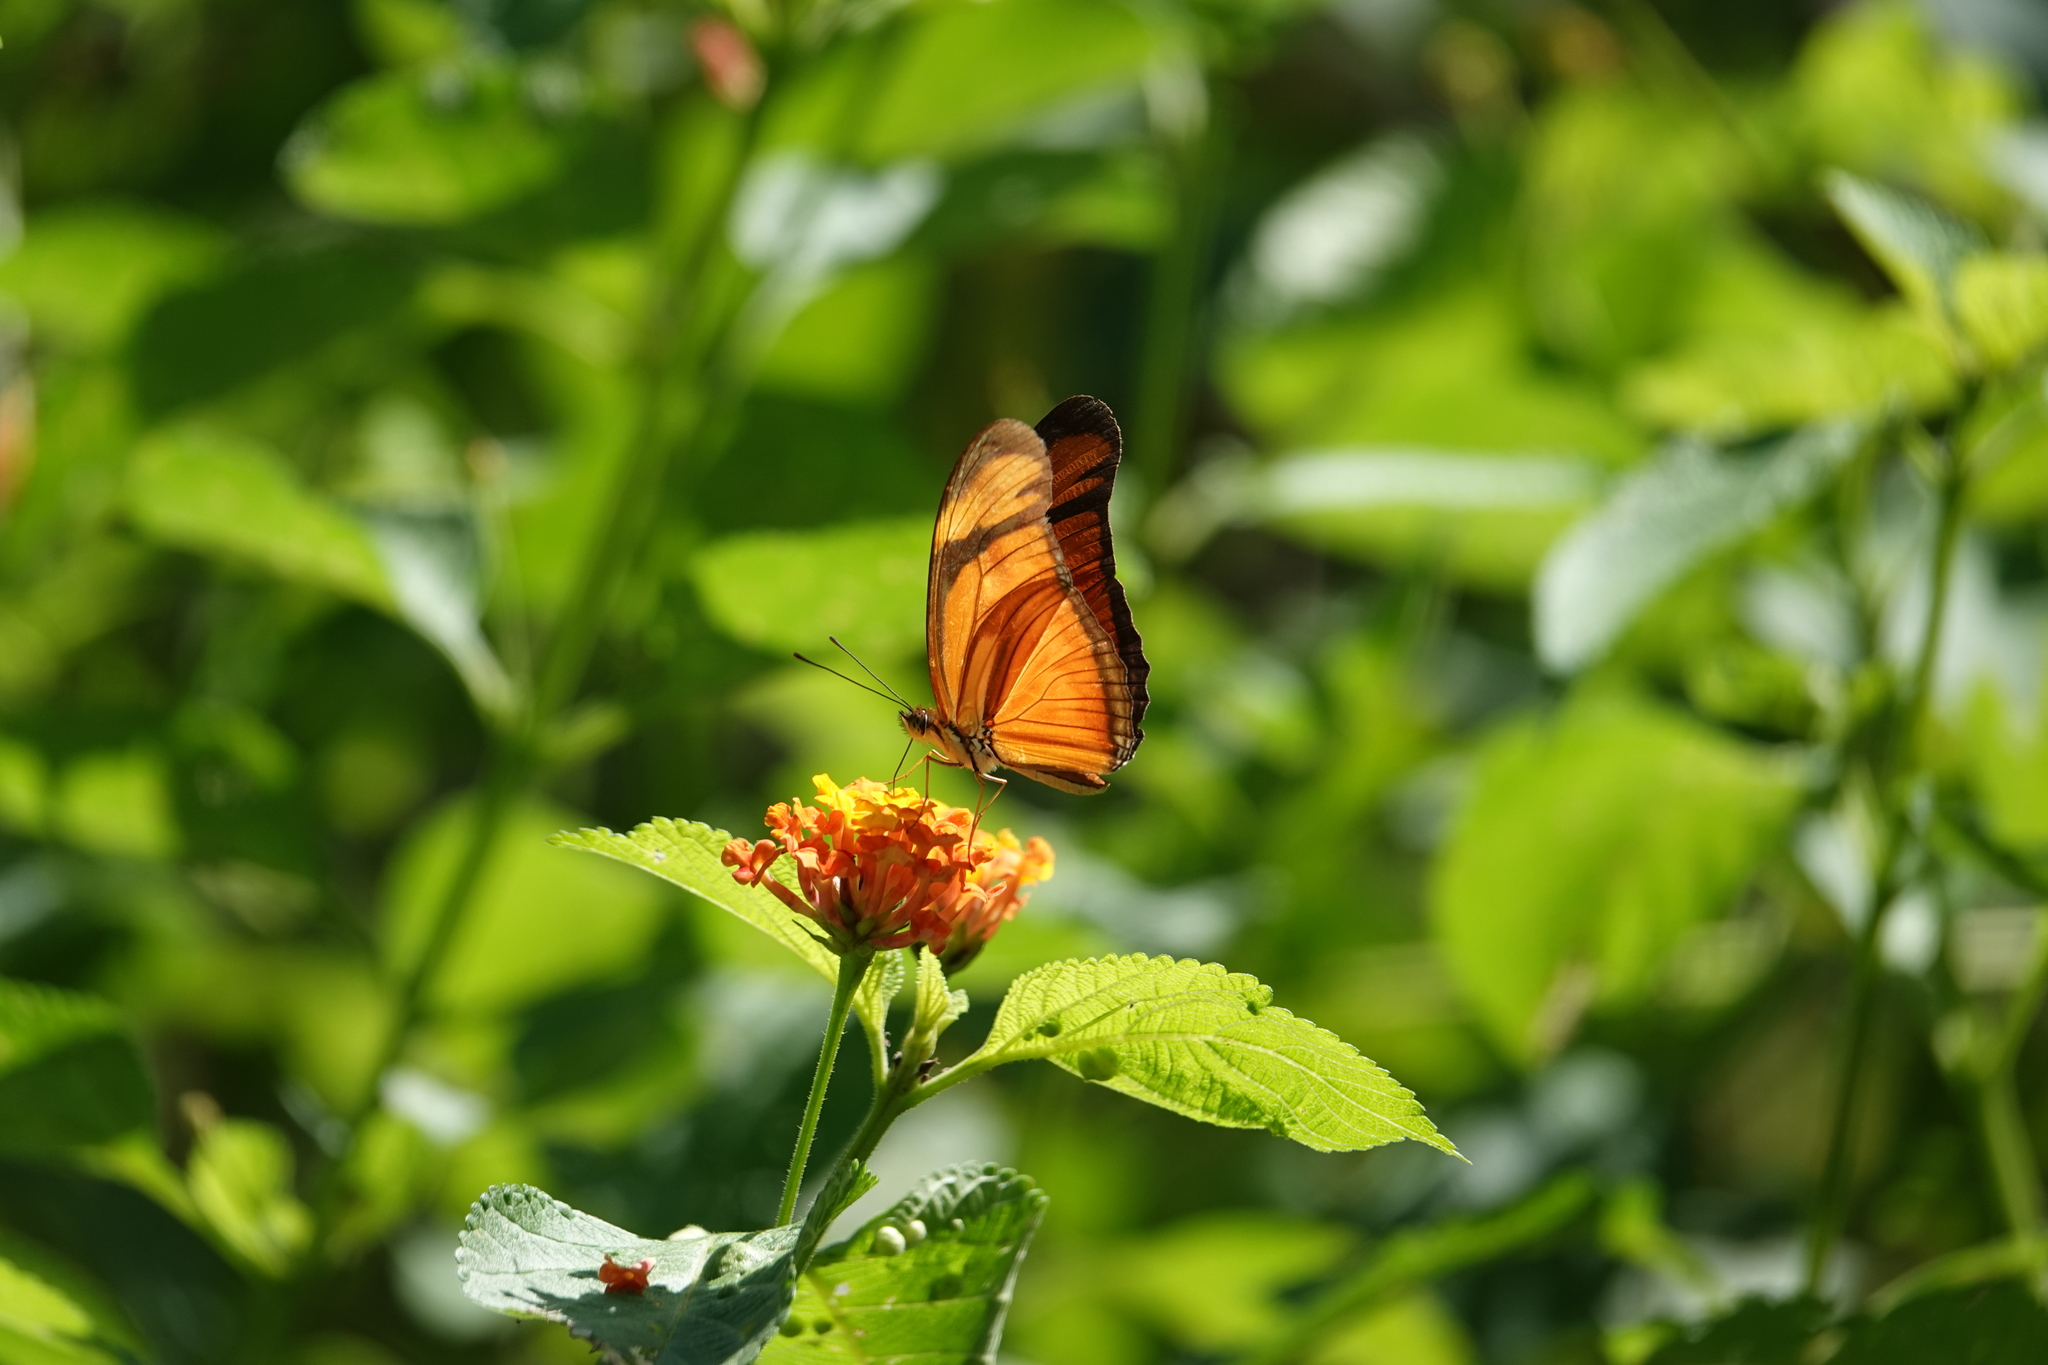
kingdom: Animalia
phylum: Arthropoda
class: Insecta
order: Lepidoptera
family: Nymphalidae
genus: Dryas
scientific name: Dryas iulia
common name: Flambeau
